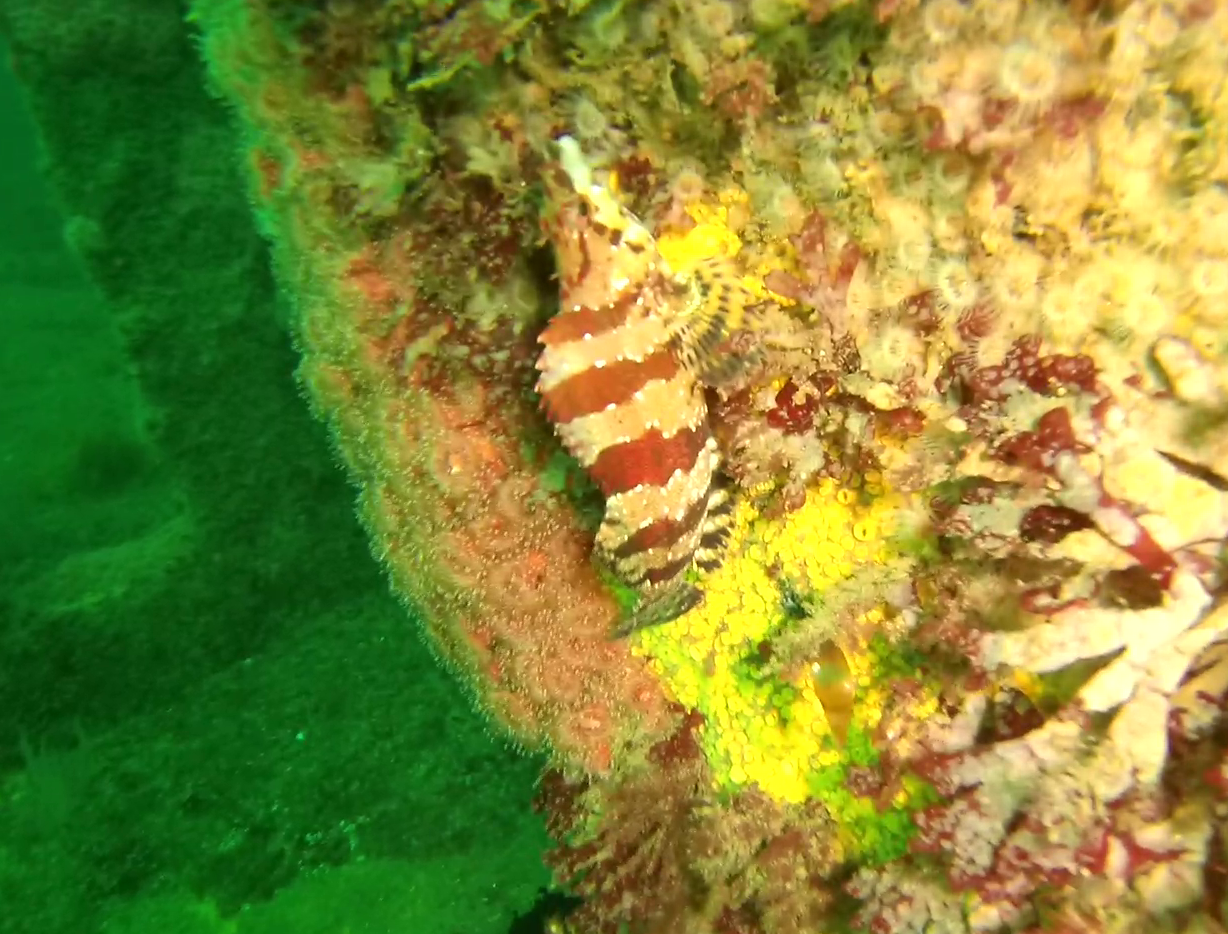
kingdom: Animalia
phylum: Chordata
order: Scorpaeniformes
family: Hexagrammidae
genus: Oxylebius
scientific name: Oxylebius pictus
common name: Painted greenling
